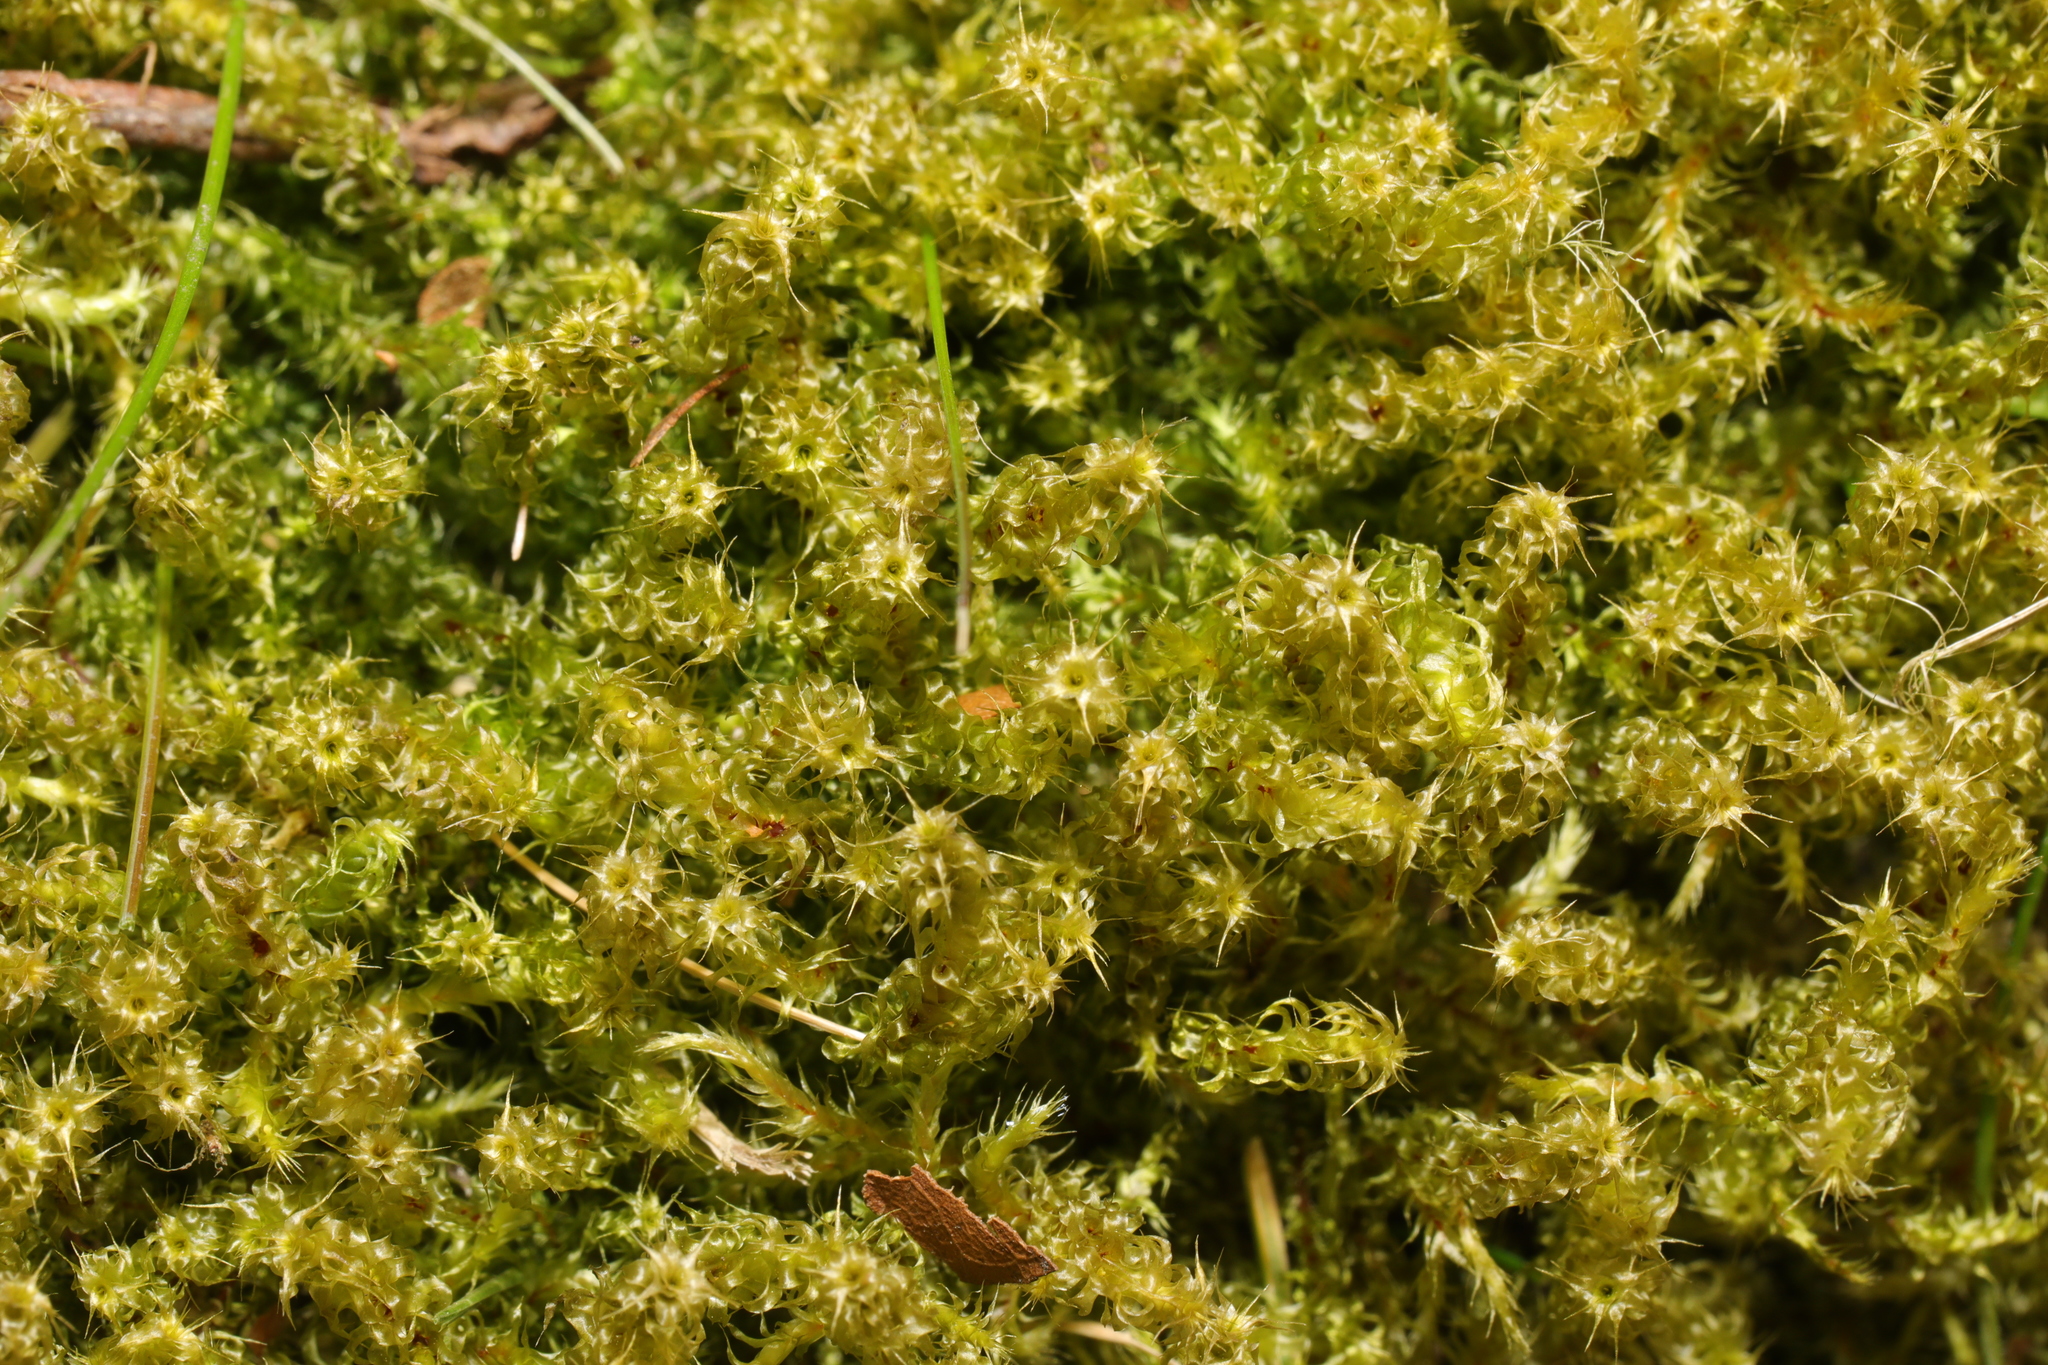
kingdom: Plantae
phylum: Bryophyta
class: Bryopsida
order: Hypnales
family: Hylocomiaceae
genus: Rhytidiadelphus
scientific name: Rhytidiadelphus squarrosus
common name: Springy turf-moss
